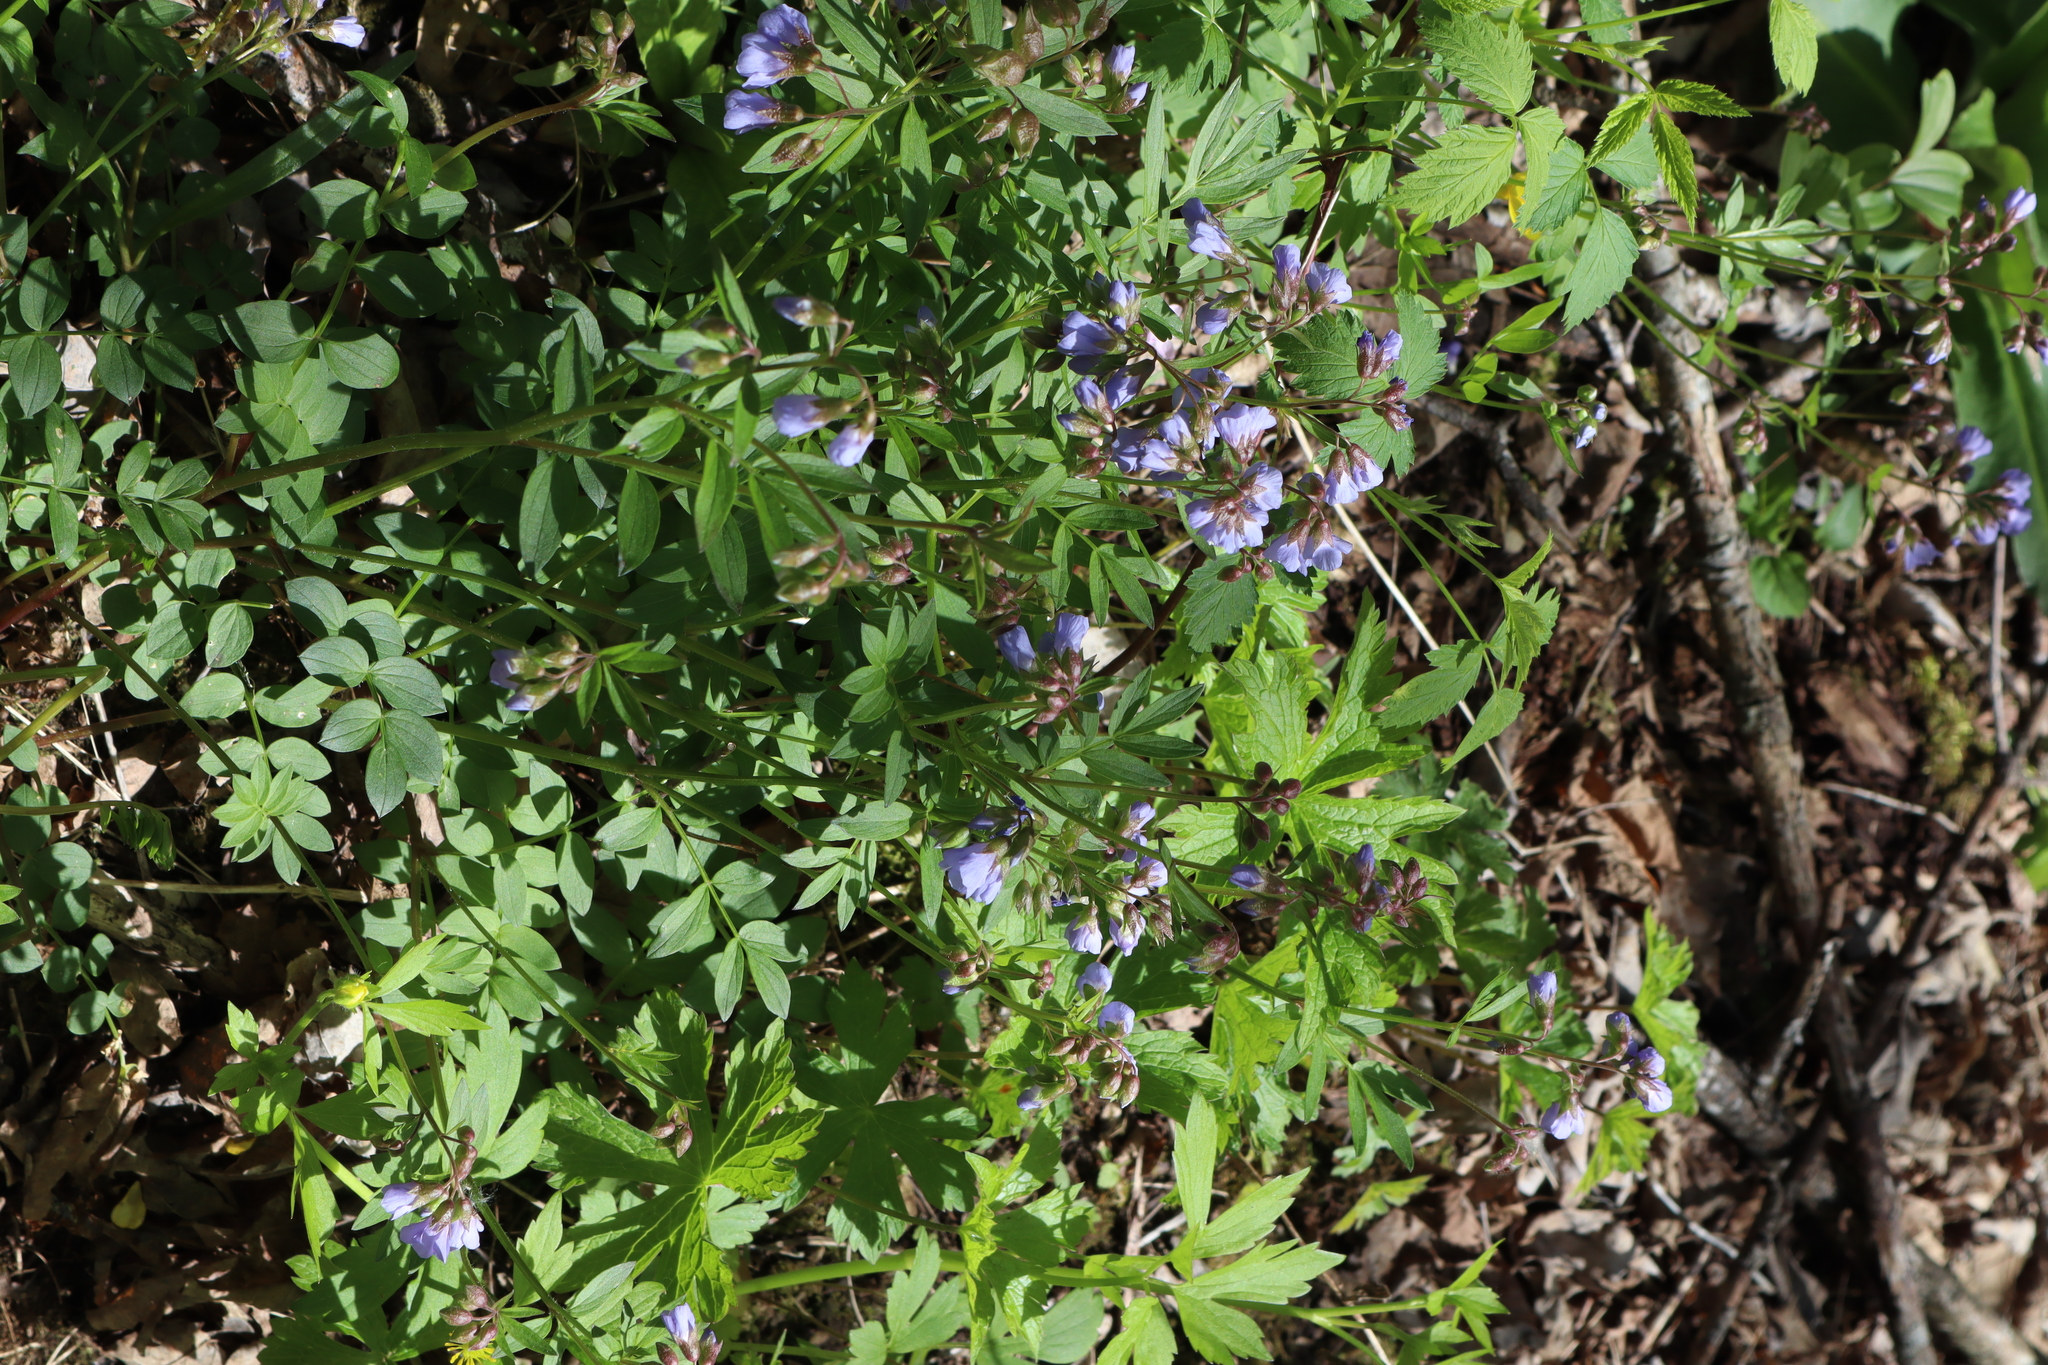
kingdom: Plantae
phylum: Tracheophyta
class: Magnoliopsida
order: Ericales
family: Polemoniaceae
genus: Polemonium
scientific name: Polemonium reptans
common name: Creeping jacob's-ladder
